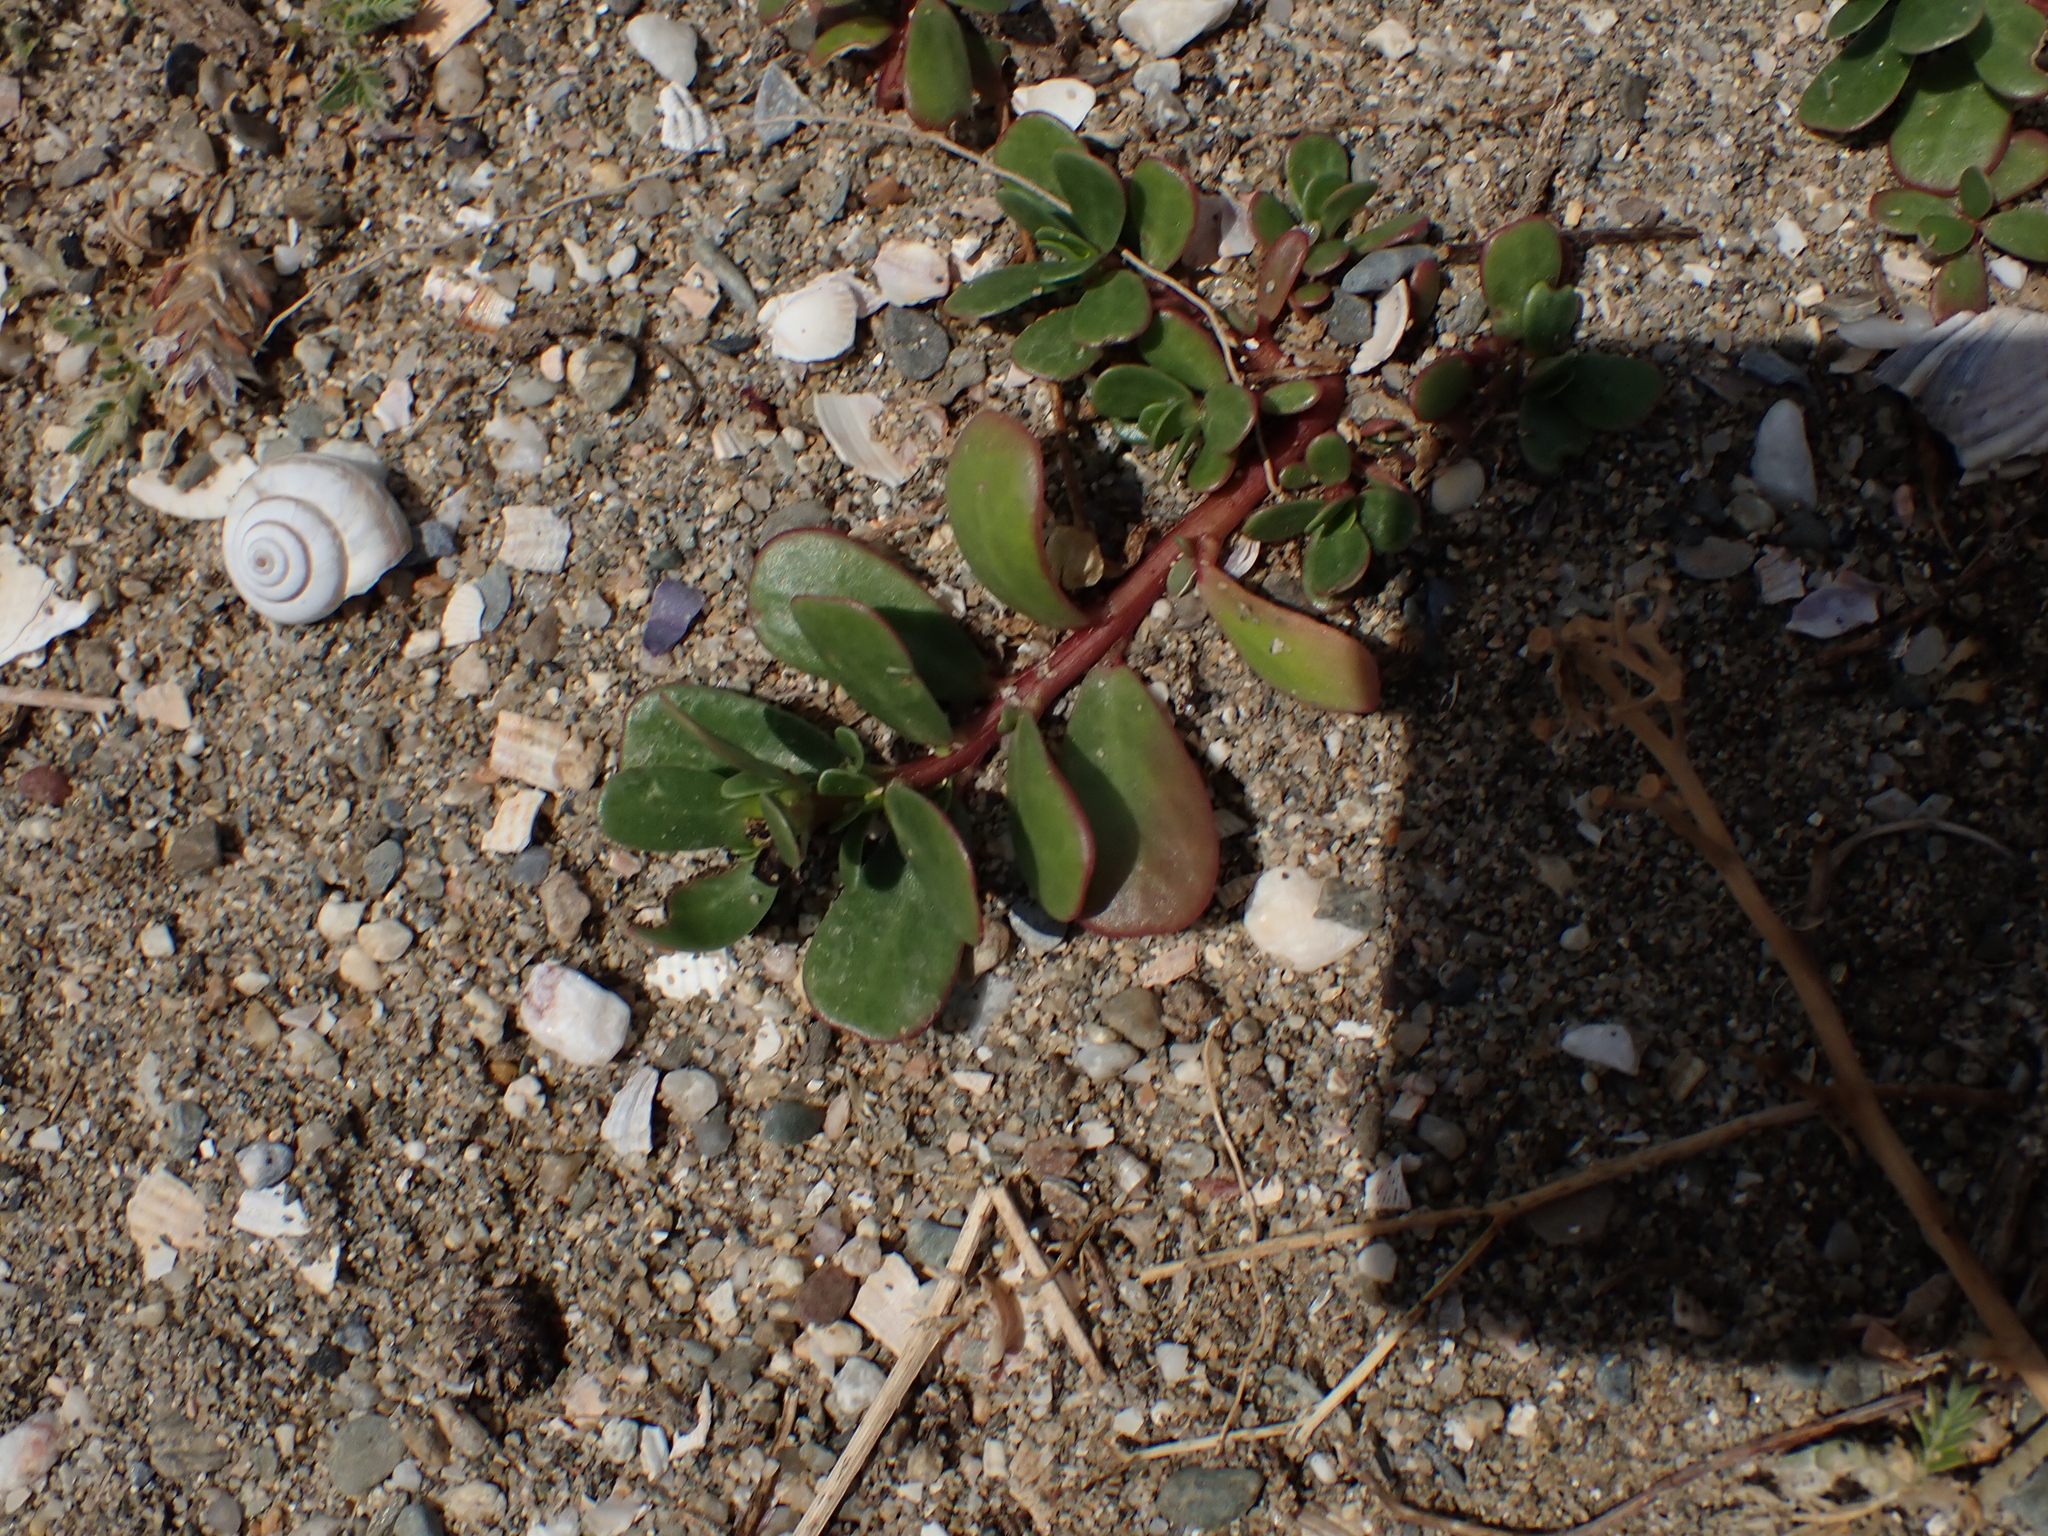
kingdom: Plantae
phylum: Tracheophyta
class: Magnoliopsida
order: Caryophyllales
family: Portulacaceae
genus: Portulaca
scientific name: Portulaca oleracea
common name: Common purslane
